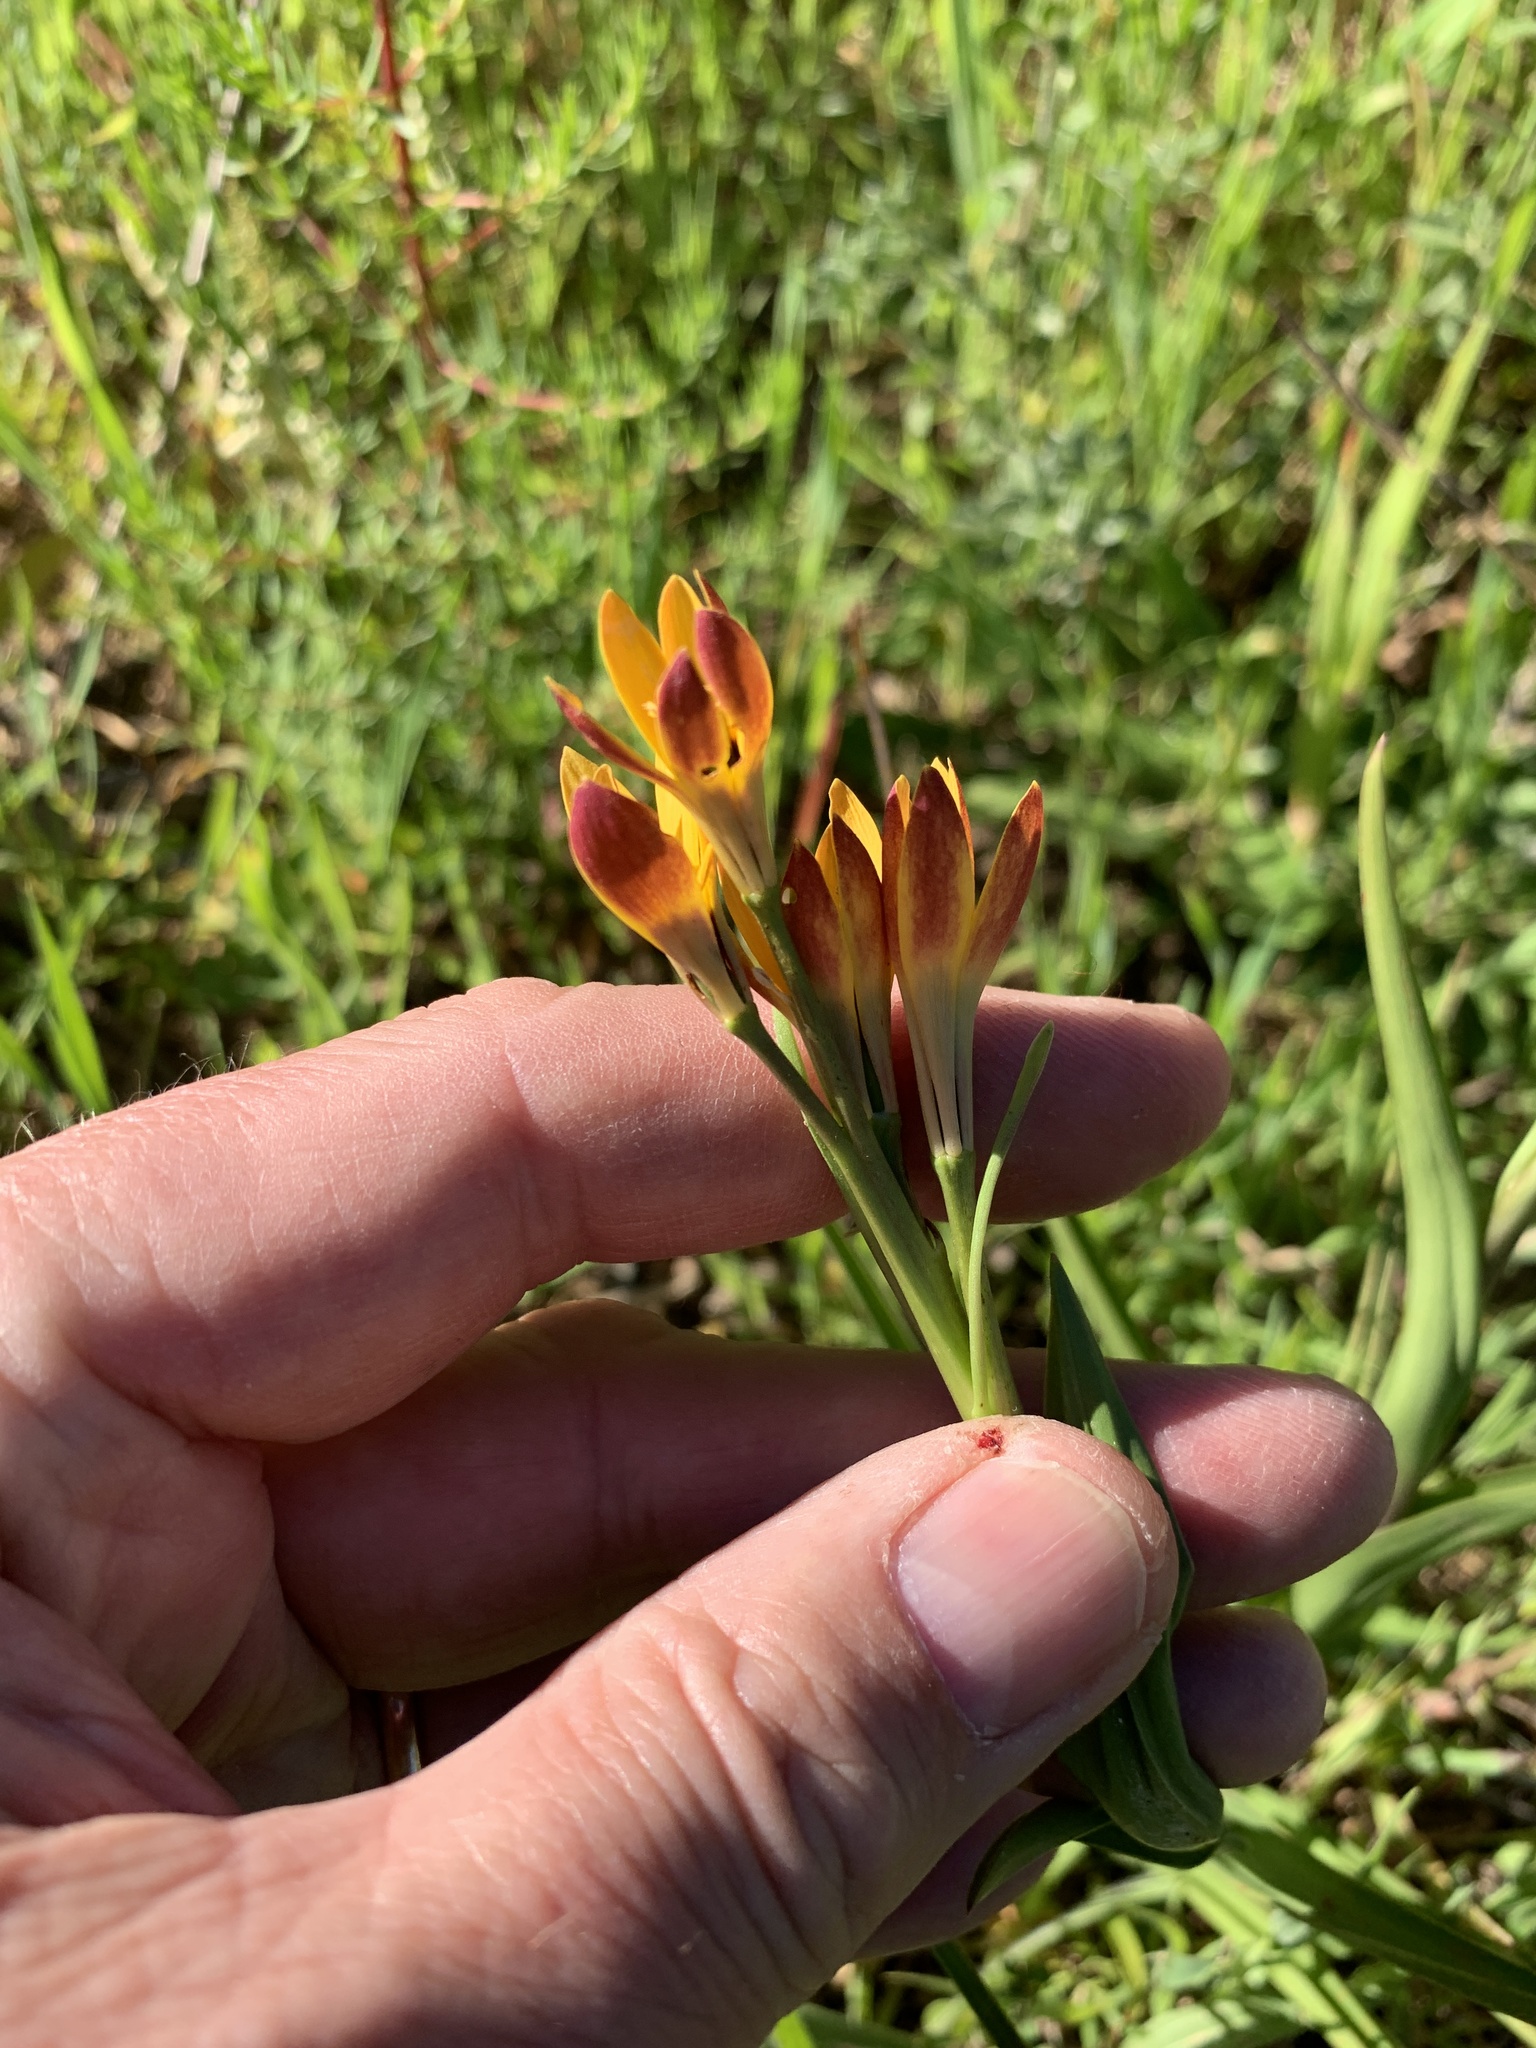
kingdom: Plantae
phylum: Tracheophyta
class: Liliopsida
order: Liliales
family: Colchicaceae
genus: Baeometra
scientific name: Baeometra uniflora
